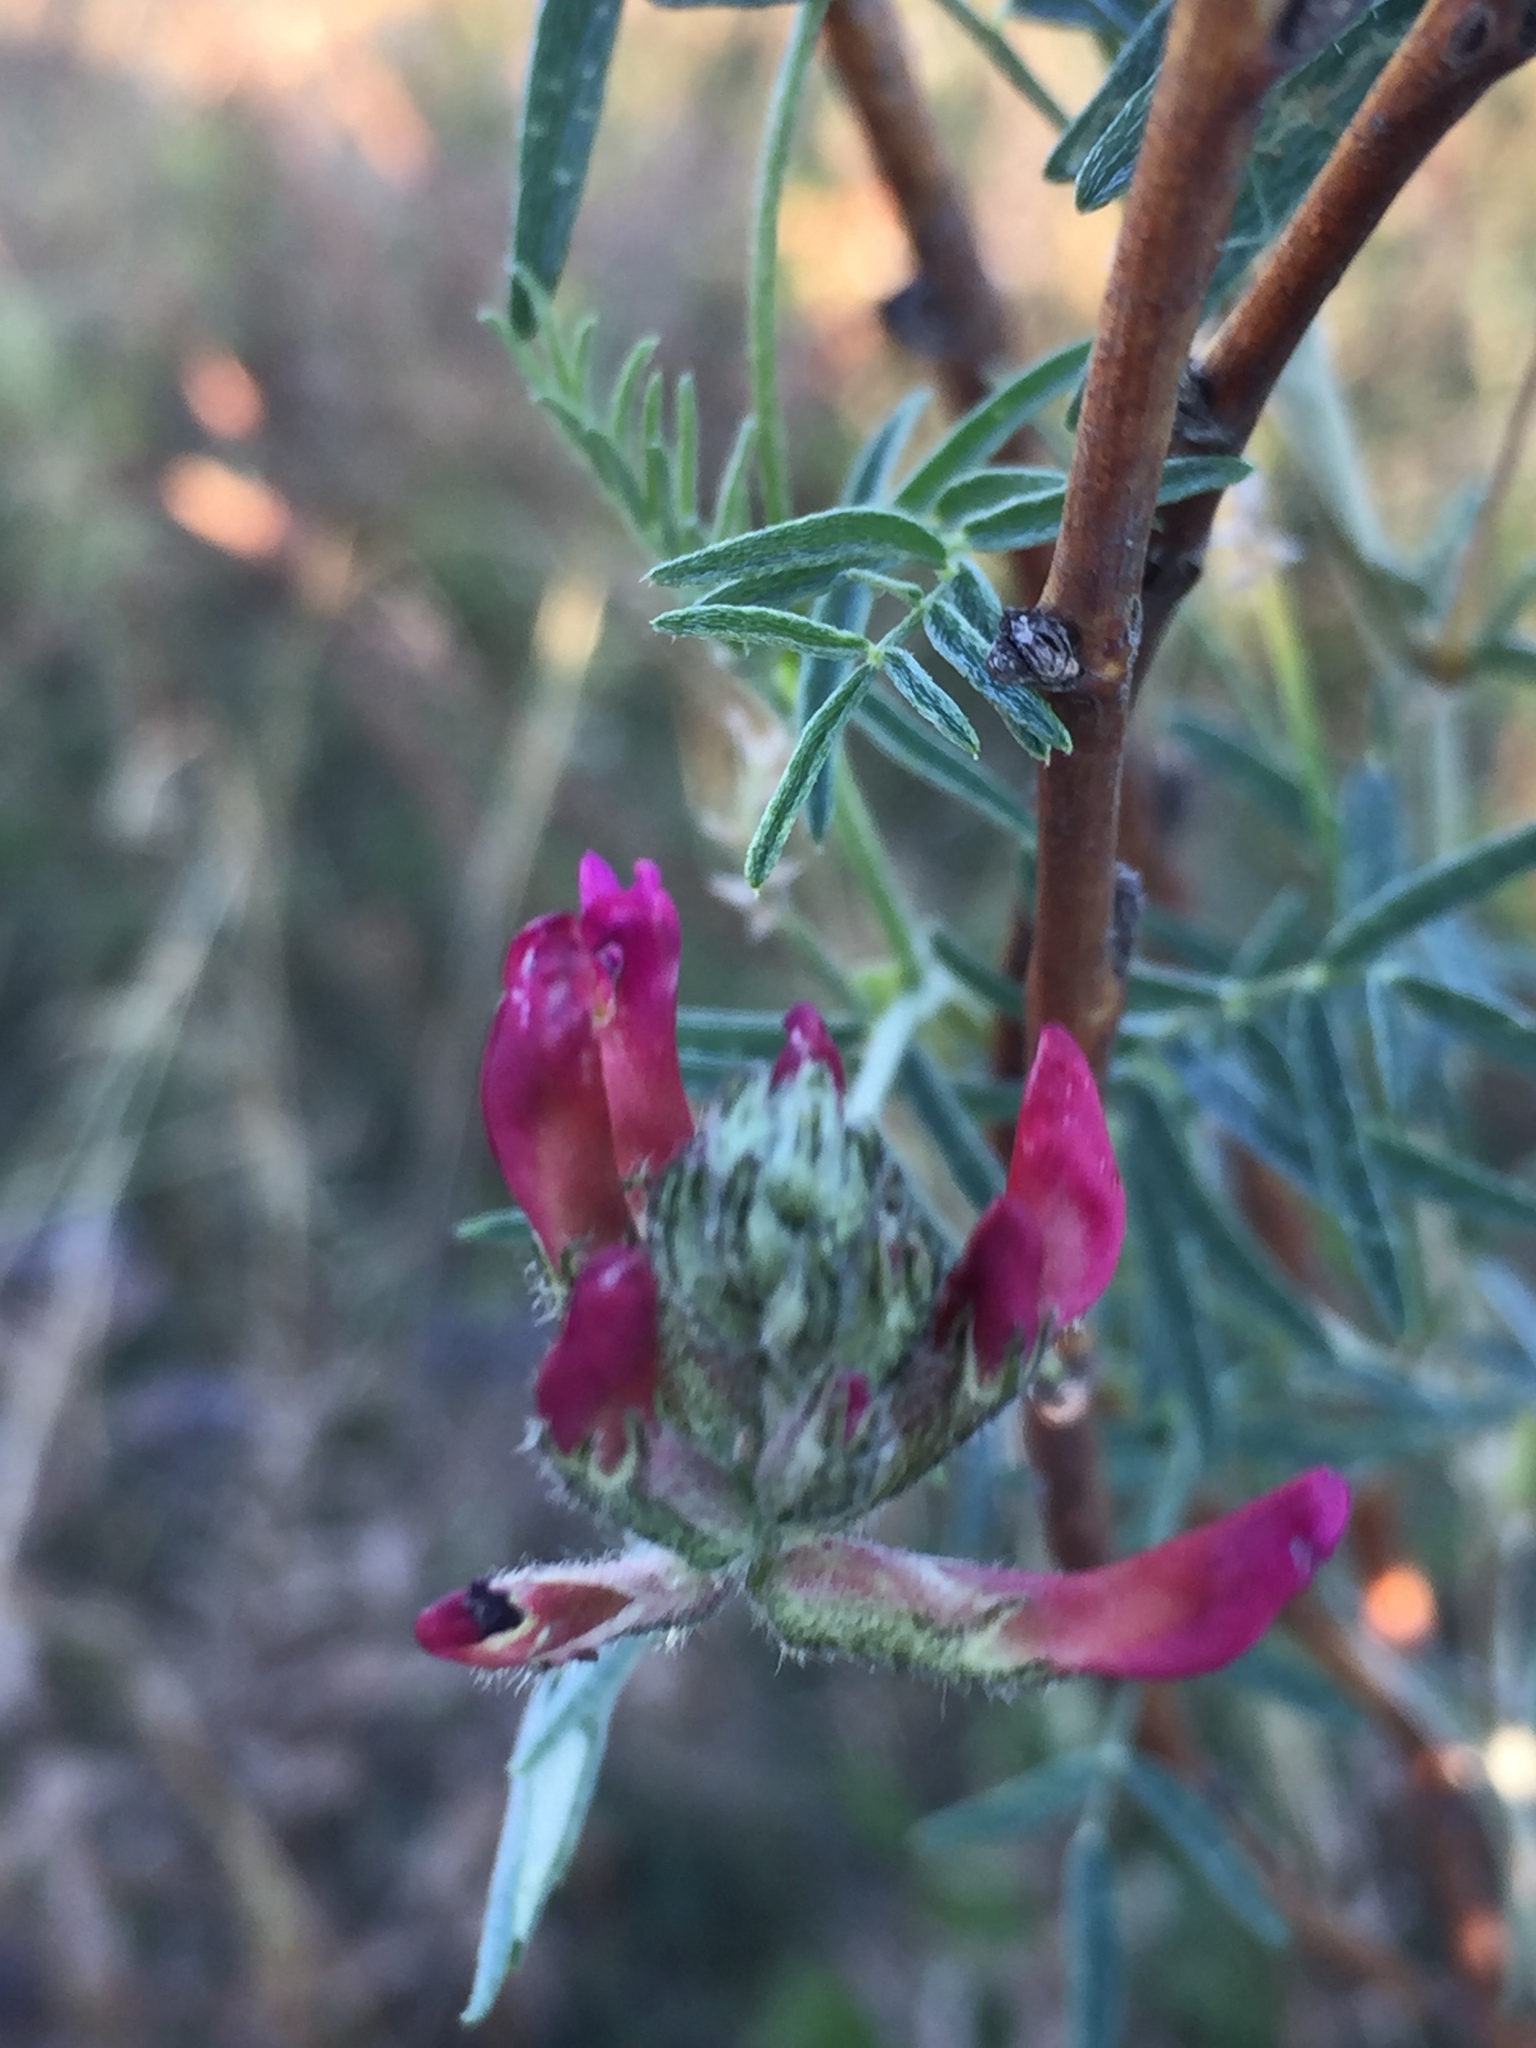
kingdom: Plantae
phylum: Tracheophyta
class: Magnoliopsida
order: Fabales
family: Fabaceae
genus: Astragalus
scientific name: Astragalus cornutus
